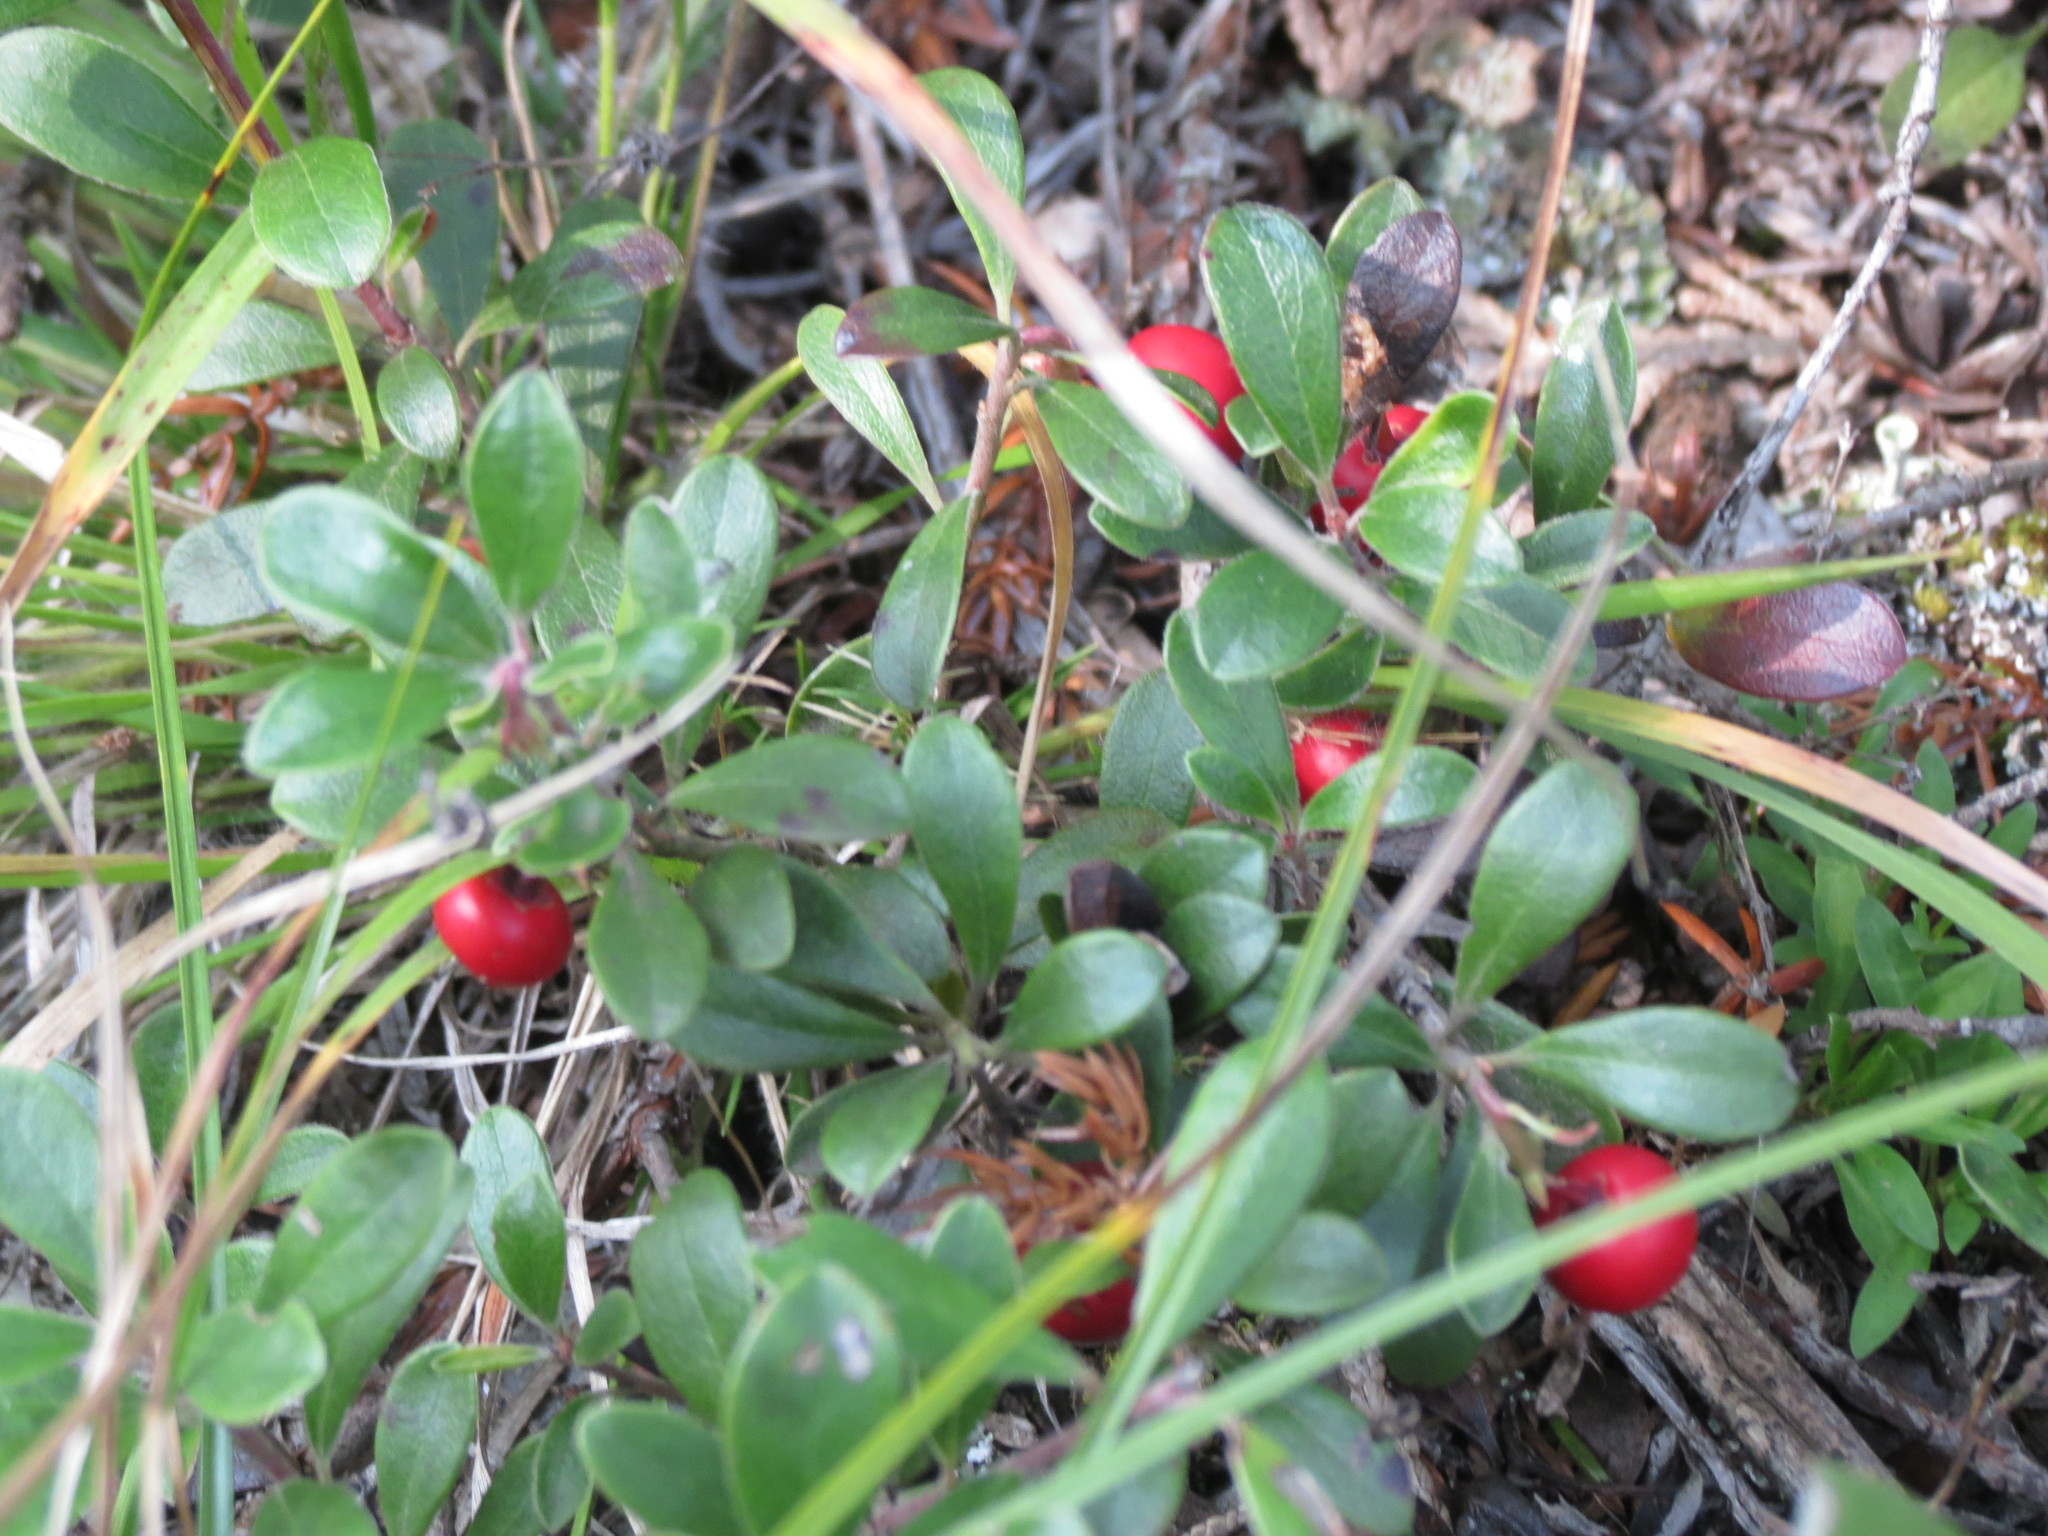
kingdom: Plantae
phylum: Tracheophyta
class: Magnoliopsida
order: Ericales
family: Ericaceae
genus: Arctostaphylos
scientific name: Arctostaphylos uva-ursi
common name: Bearberry
